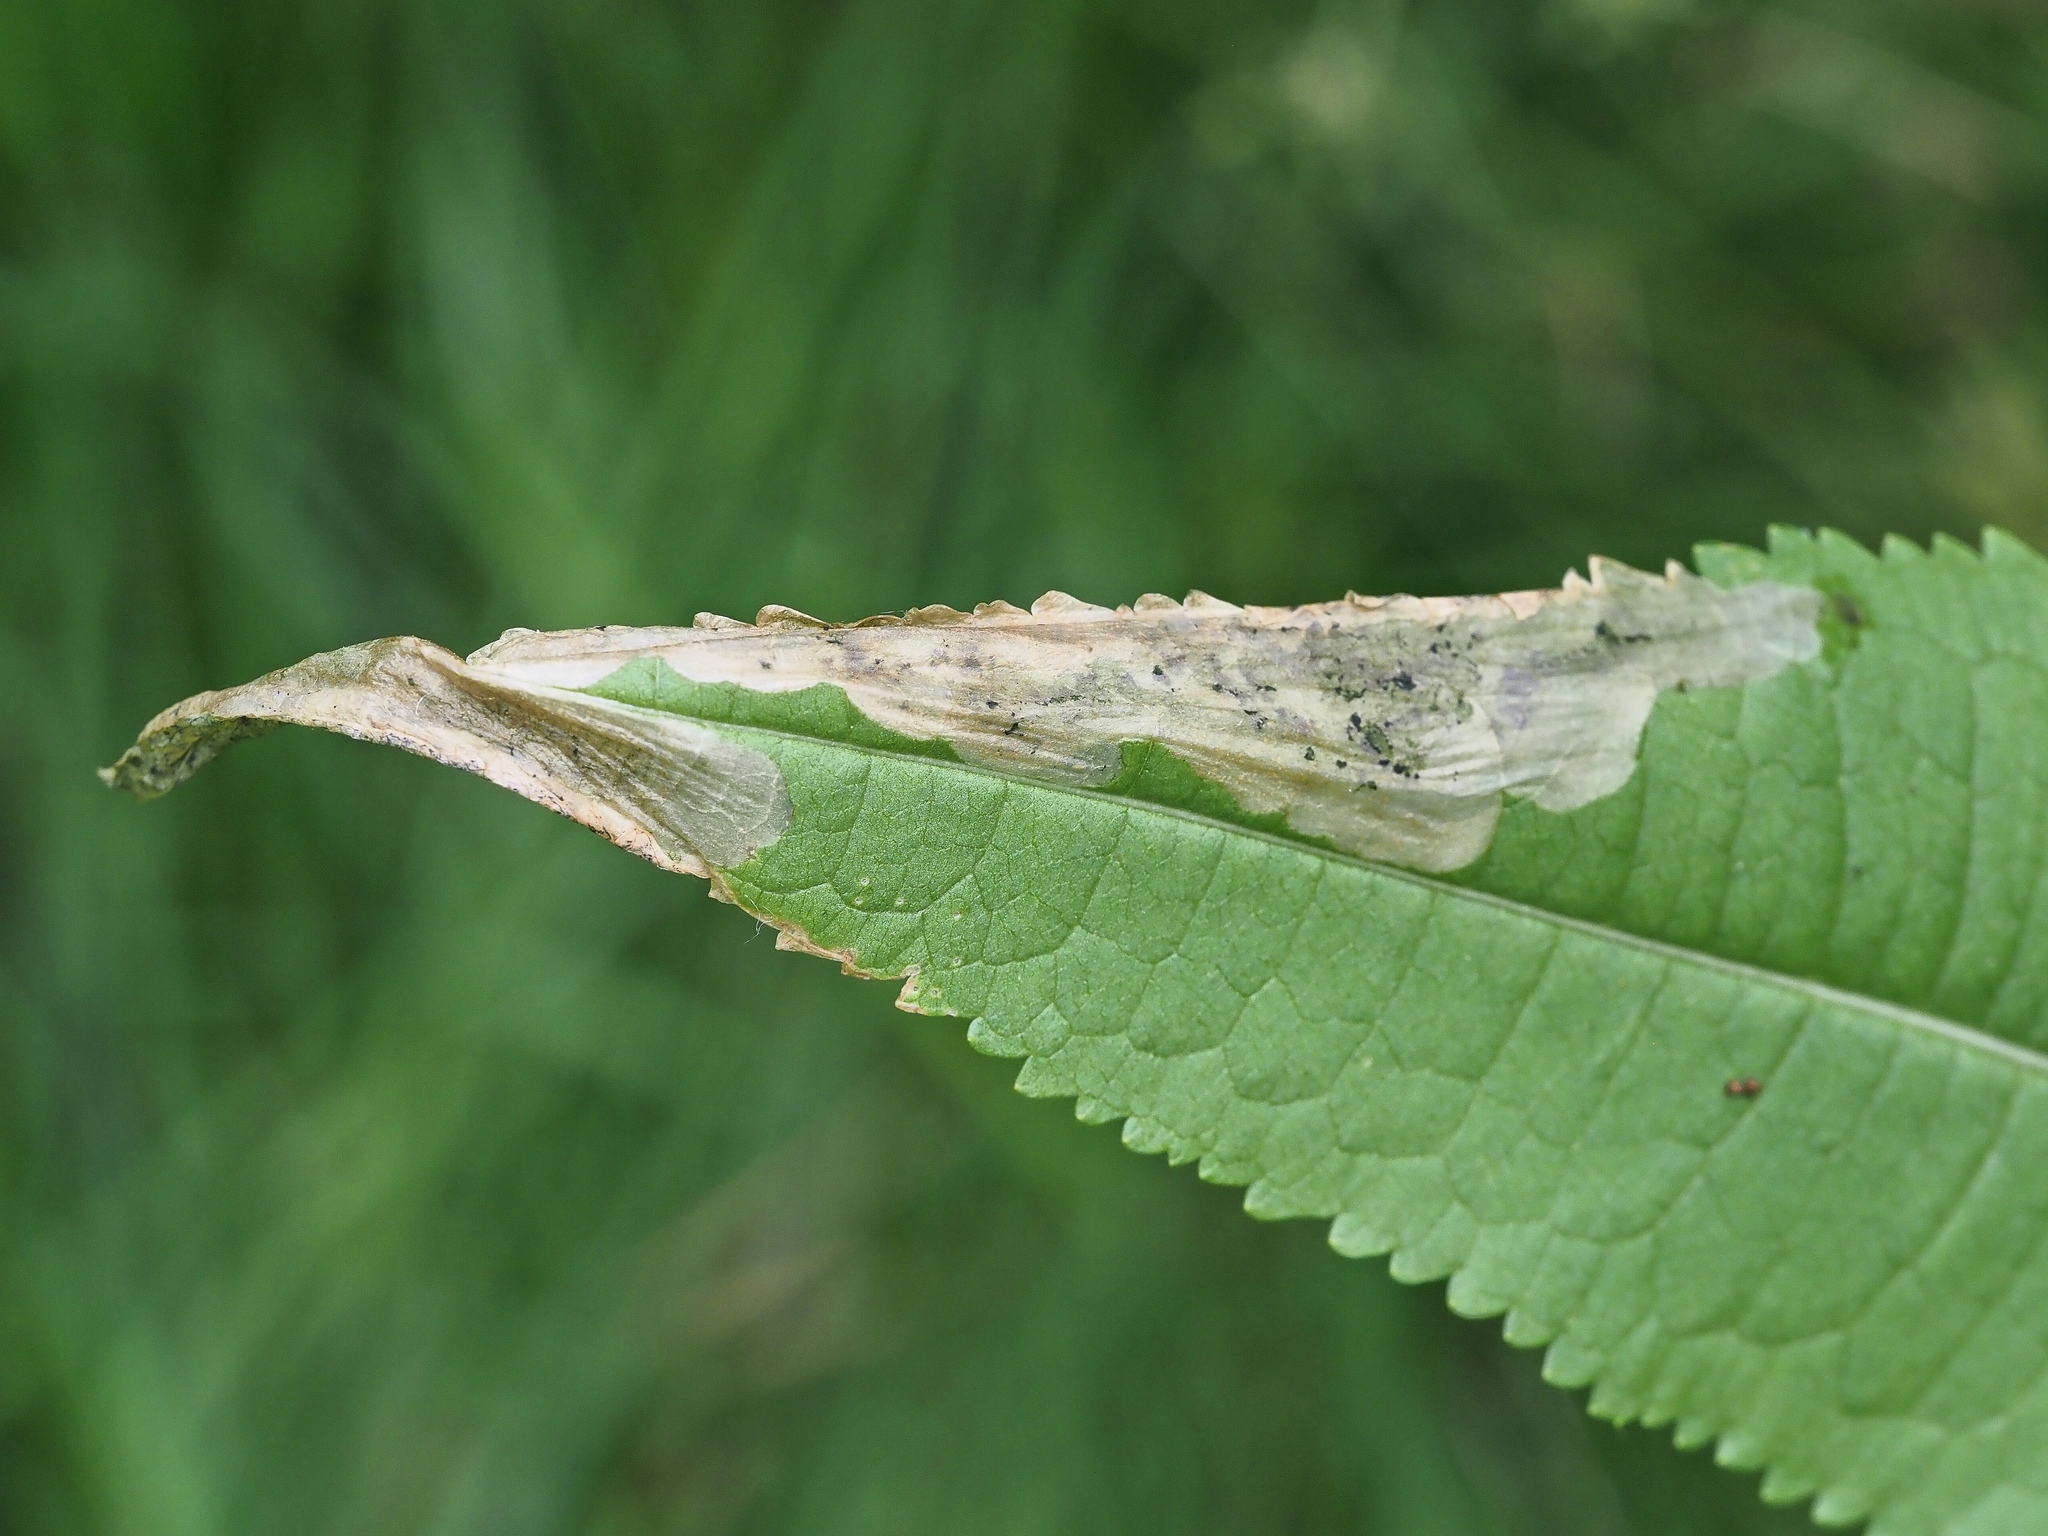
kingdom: Animalia
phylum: Arthropoda
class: Insecta
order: Diptera
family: Agromyzidae
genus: Agromyza
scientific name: Agromyza dipsaci
